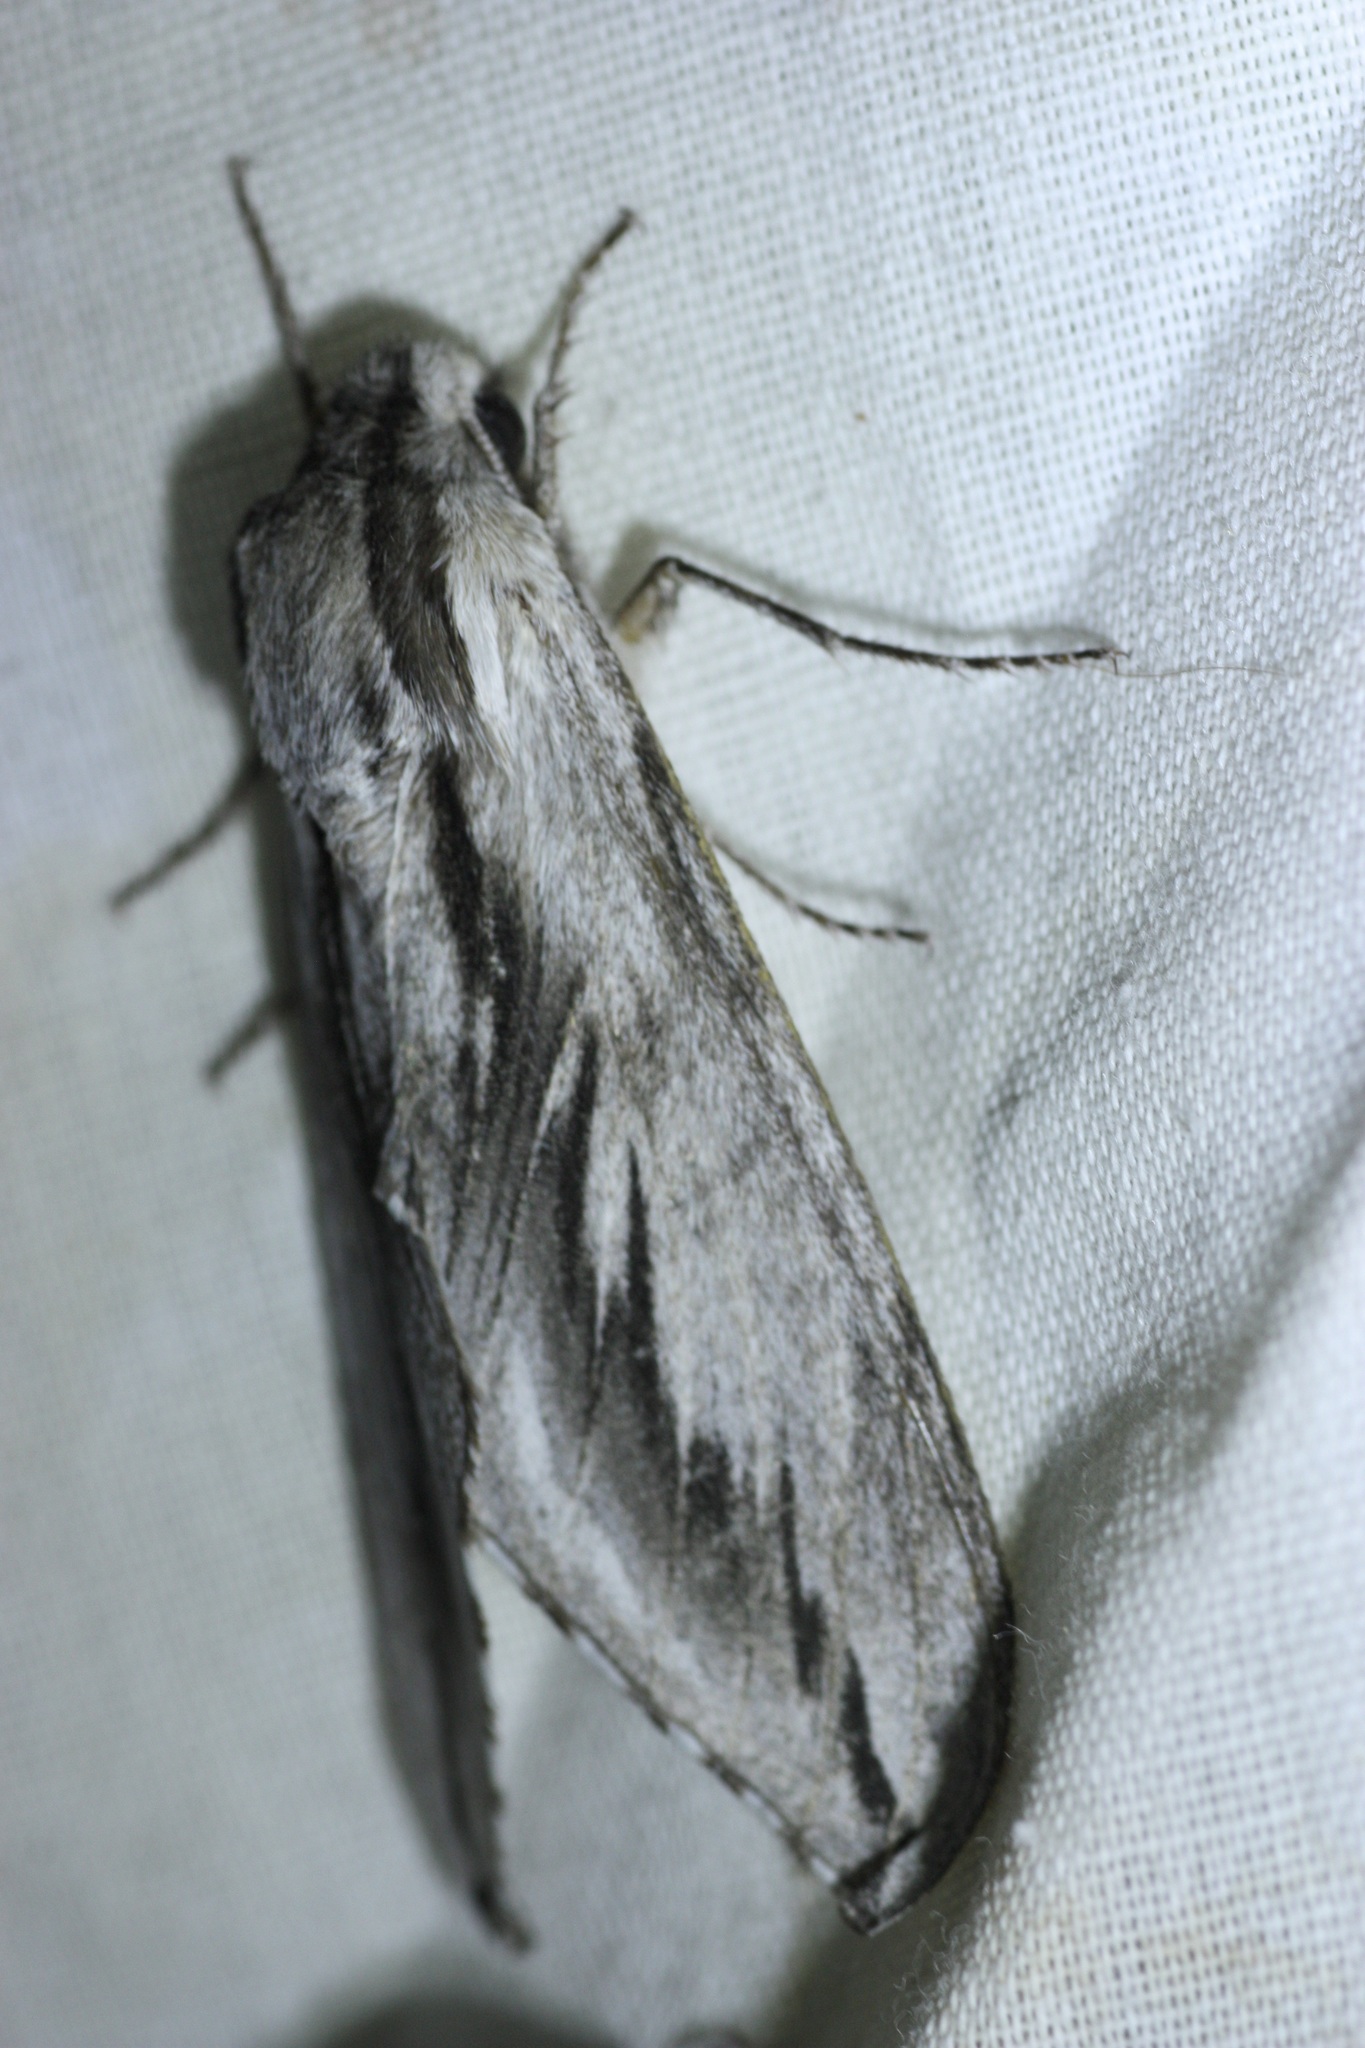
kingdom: Animalia
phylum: Arthropoda
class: Insecta
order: Lepidoptera
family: Sphingidae
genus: Sphinx
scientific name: Sphinx dollii
